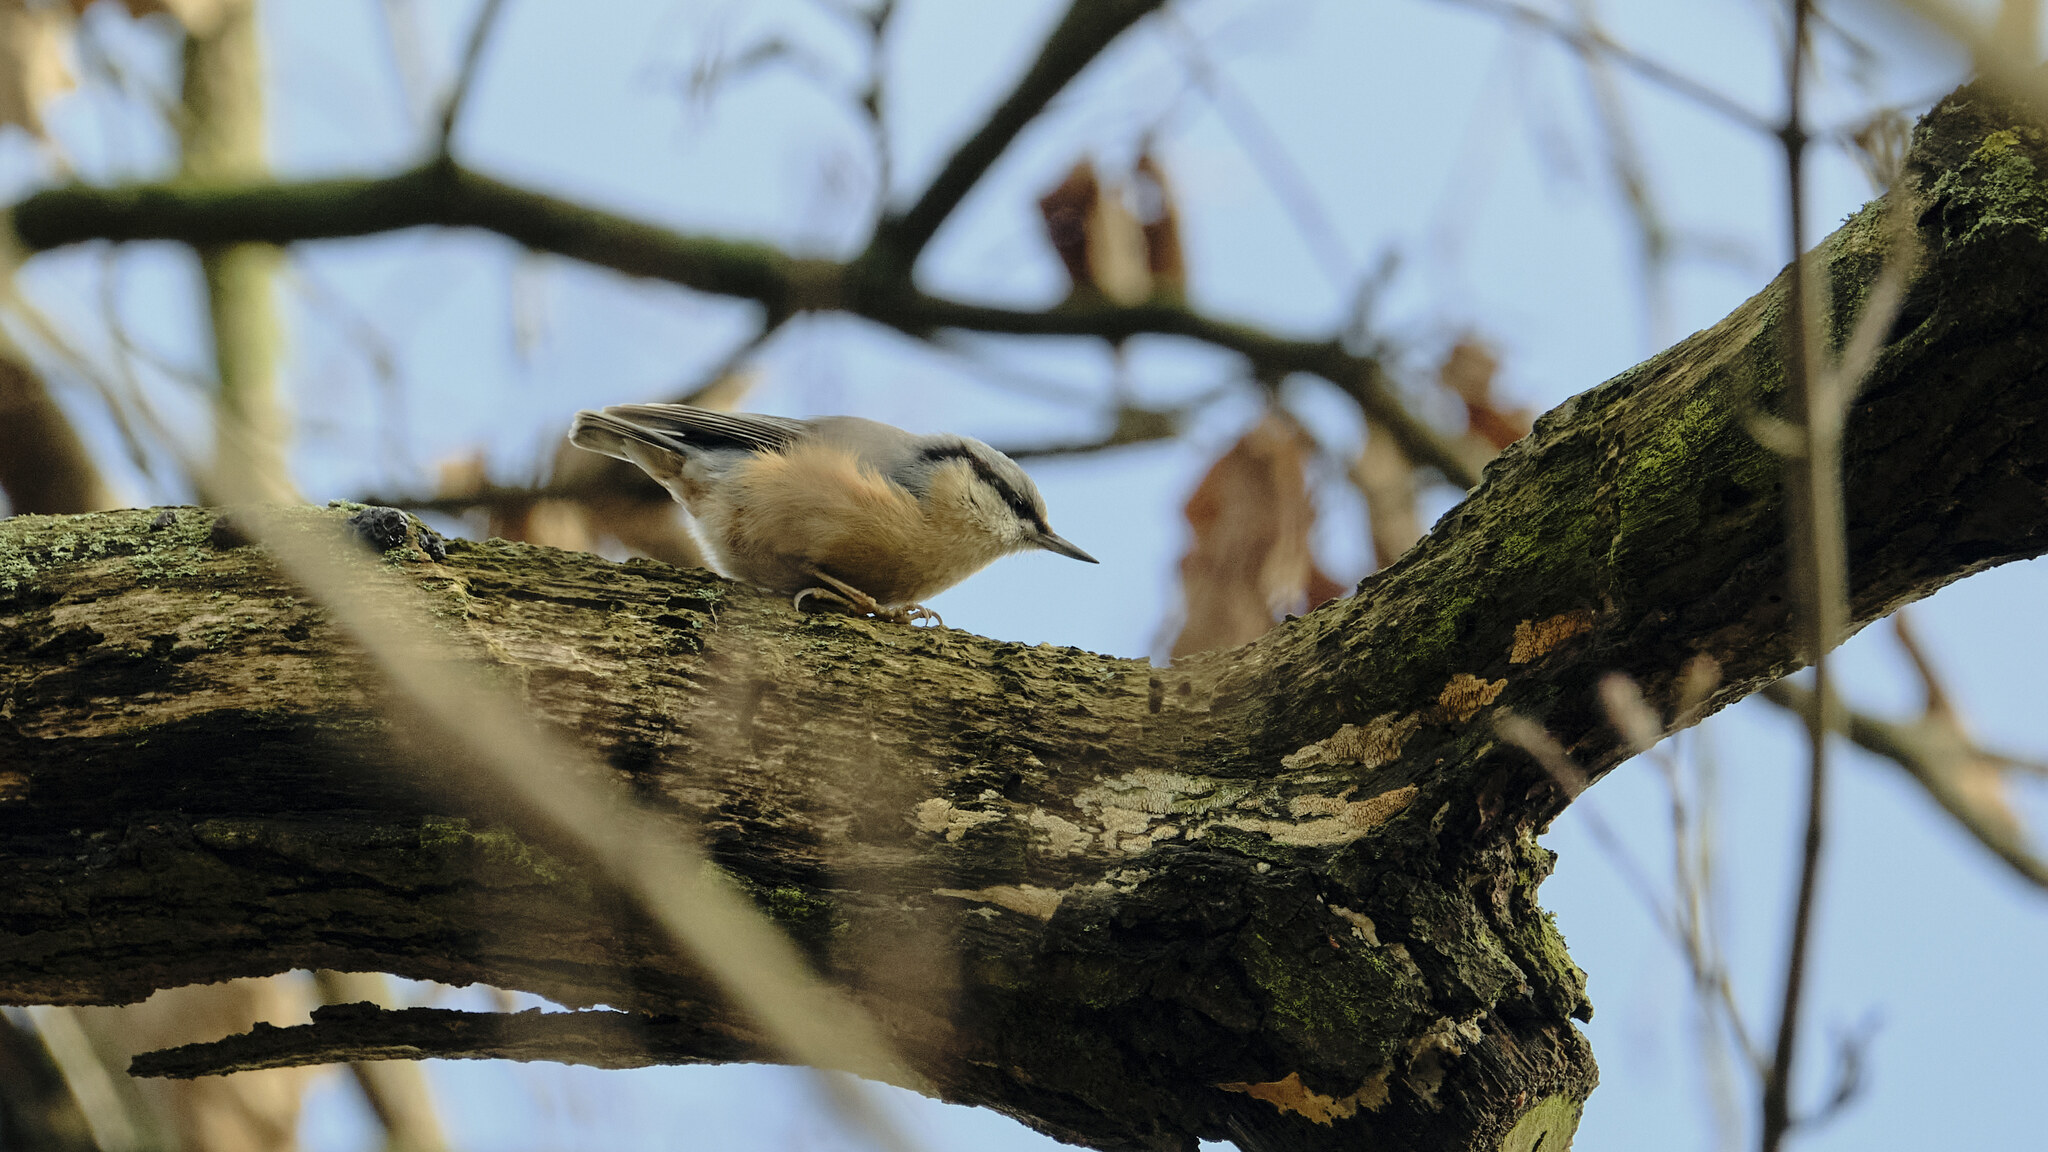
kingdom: Animalia
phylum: Chordata
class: Aves
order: Passeriformes
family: Sittidae
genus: Sitta
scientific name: Sitta europaea
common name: Eurasian nuthatch
